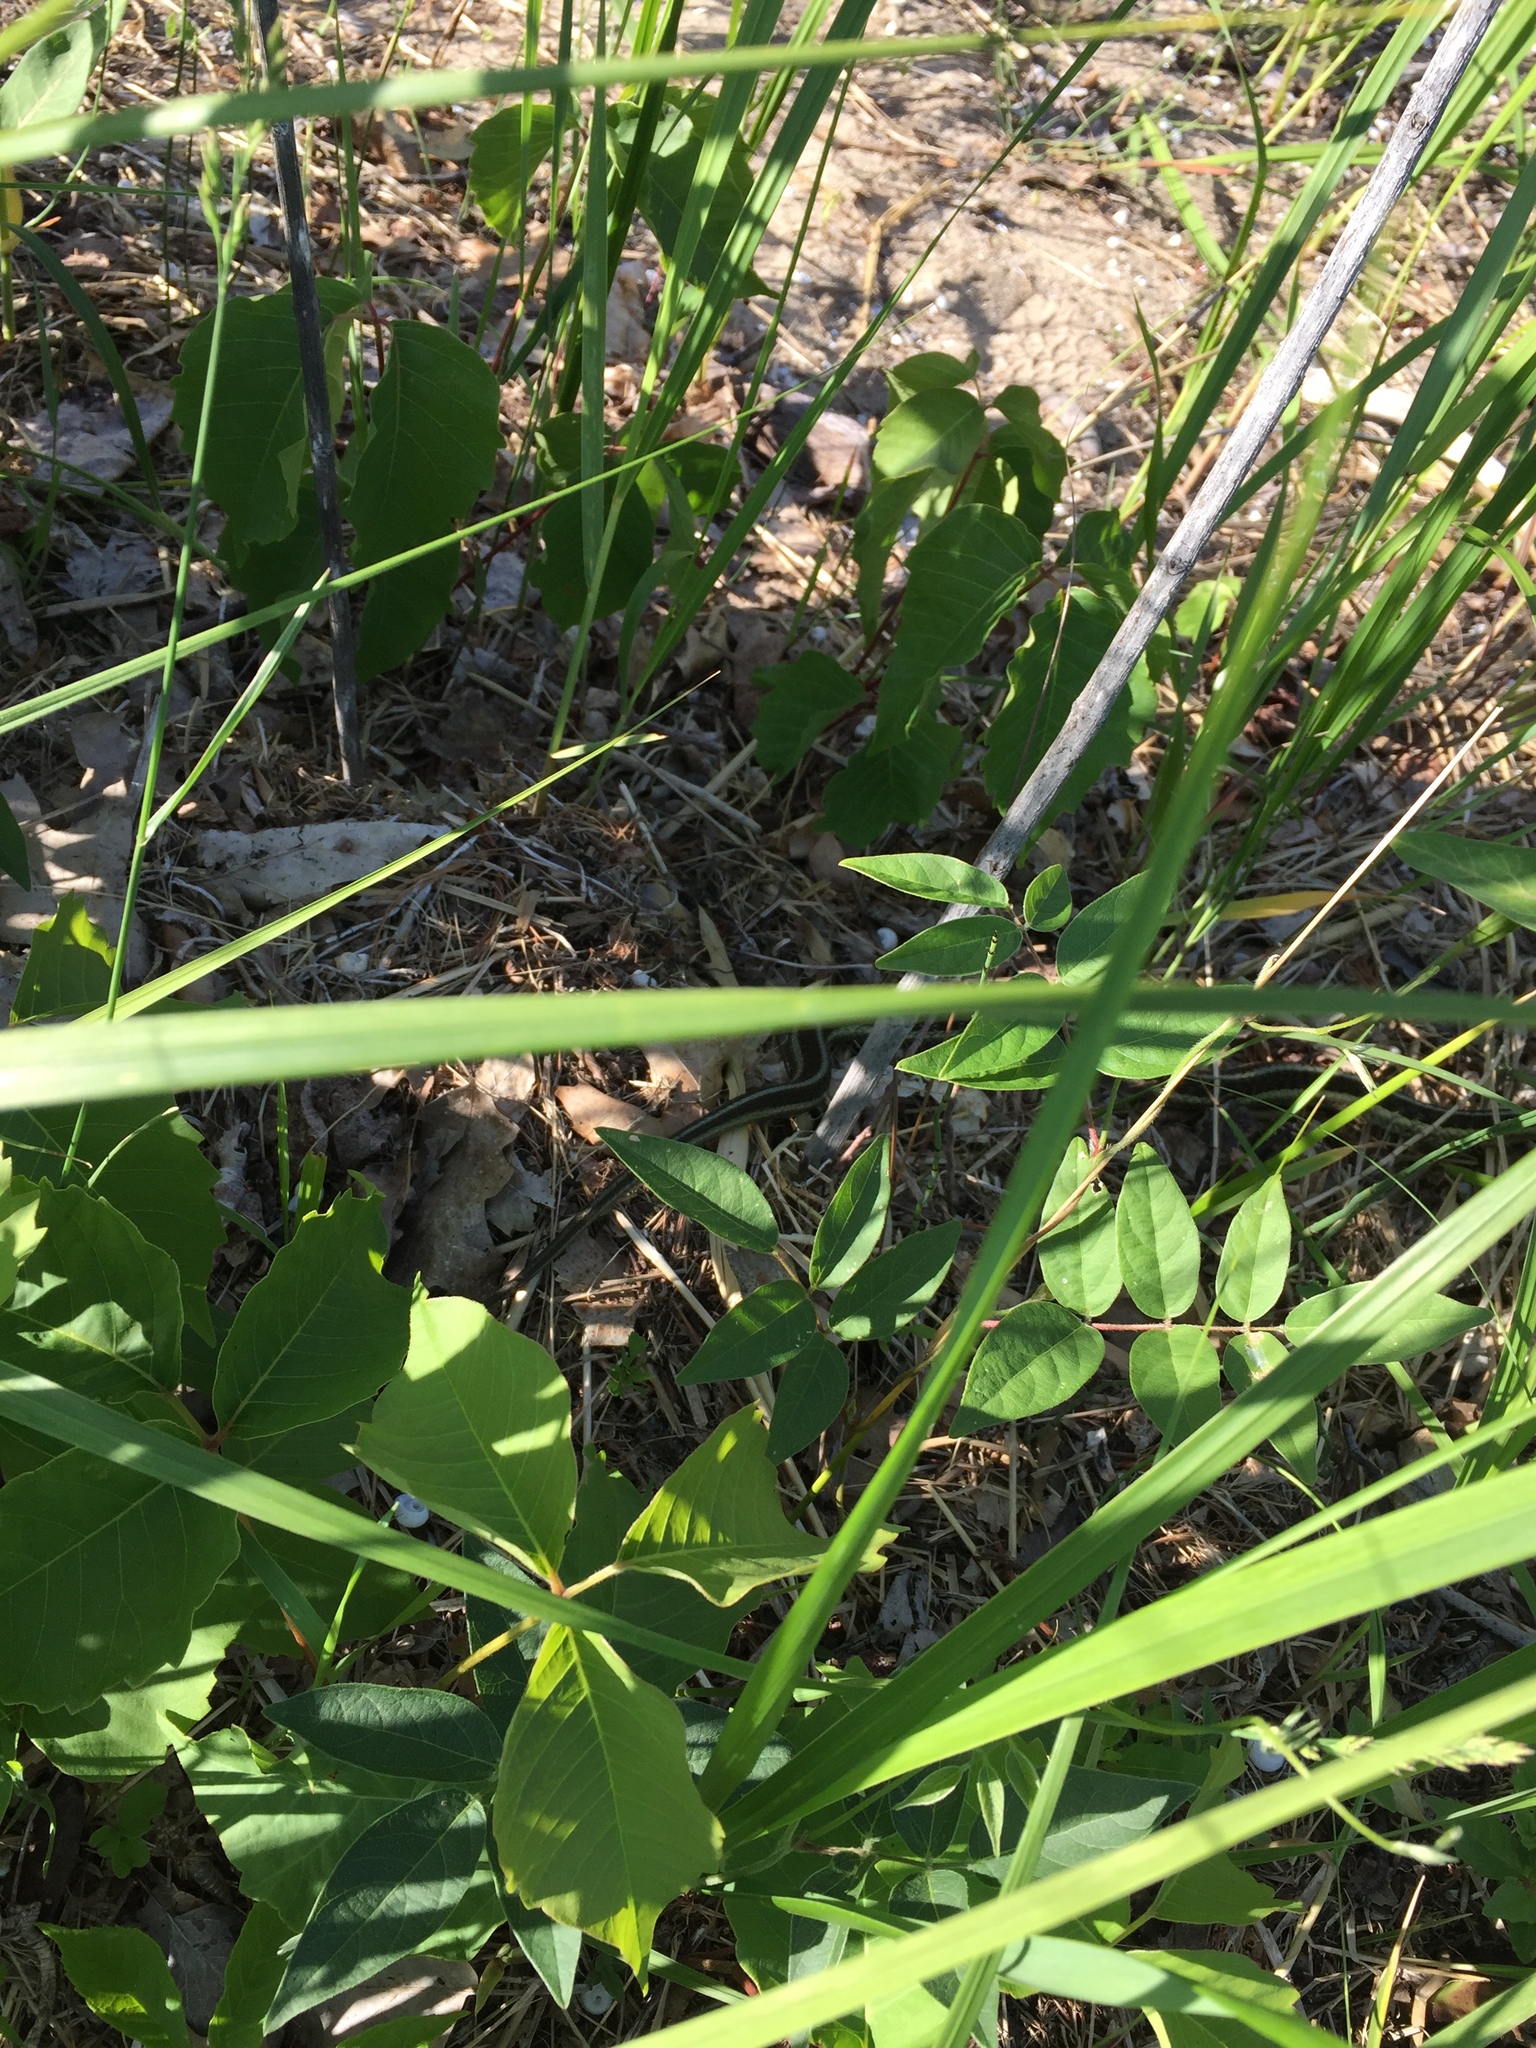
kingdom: Animalia
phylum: Chordata
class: Squamata
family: Colubridae
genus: Thamnophis
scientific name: Thamnophis sirtalis
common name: Common garter snake
